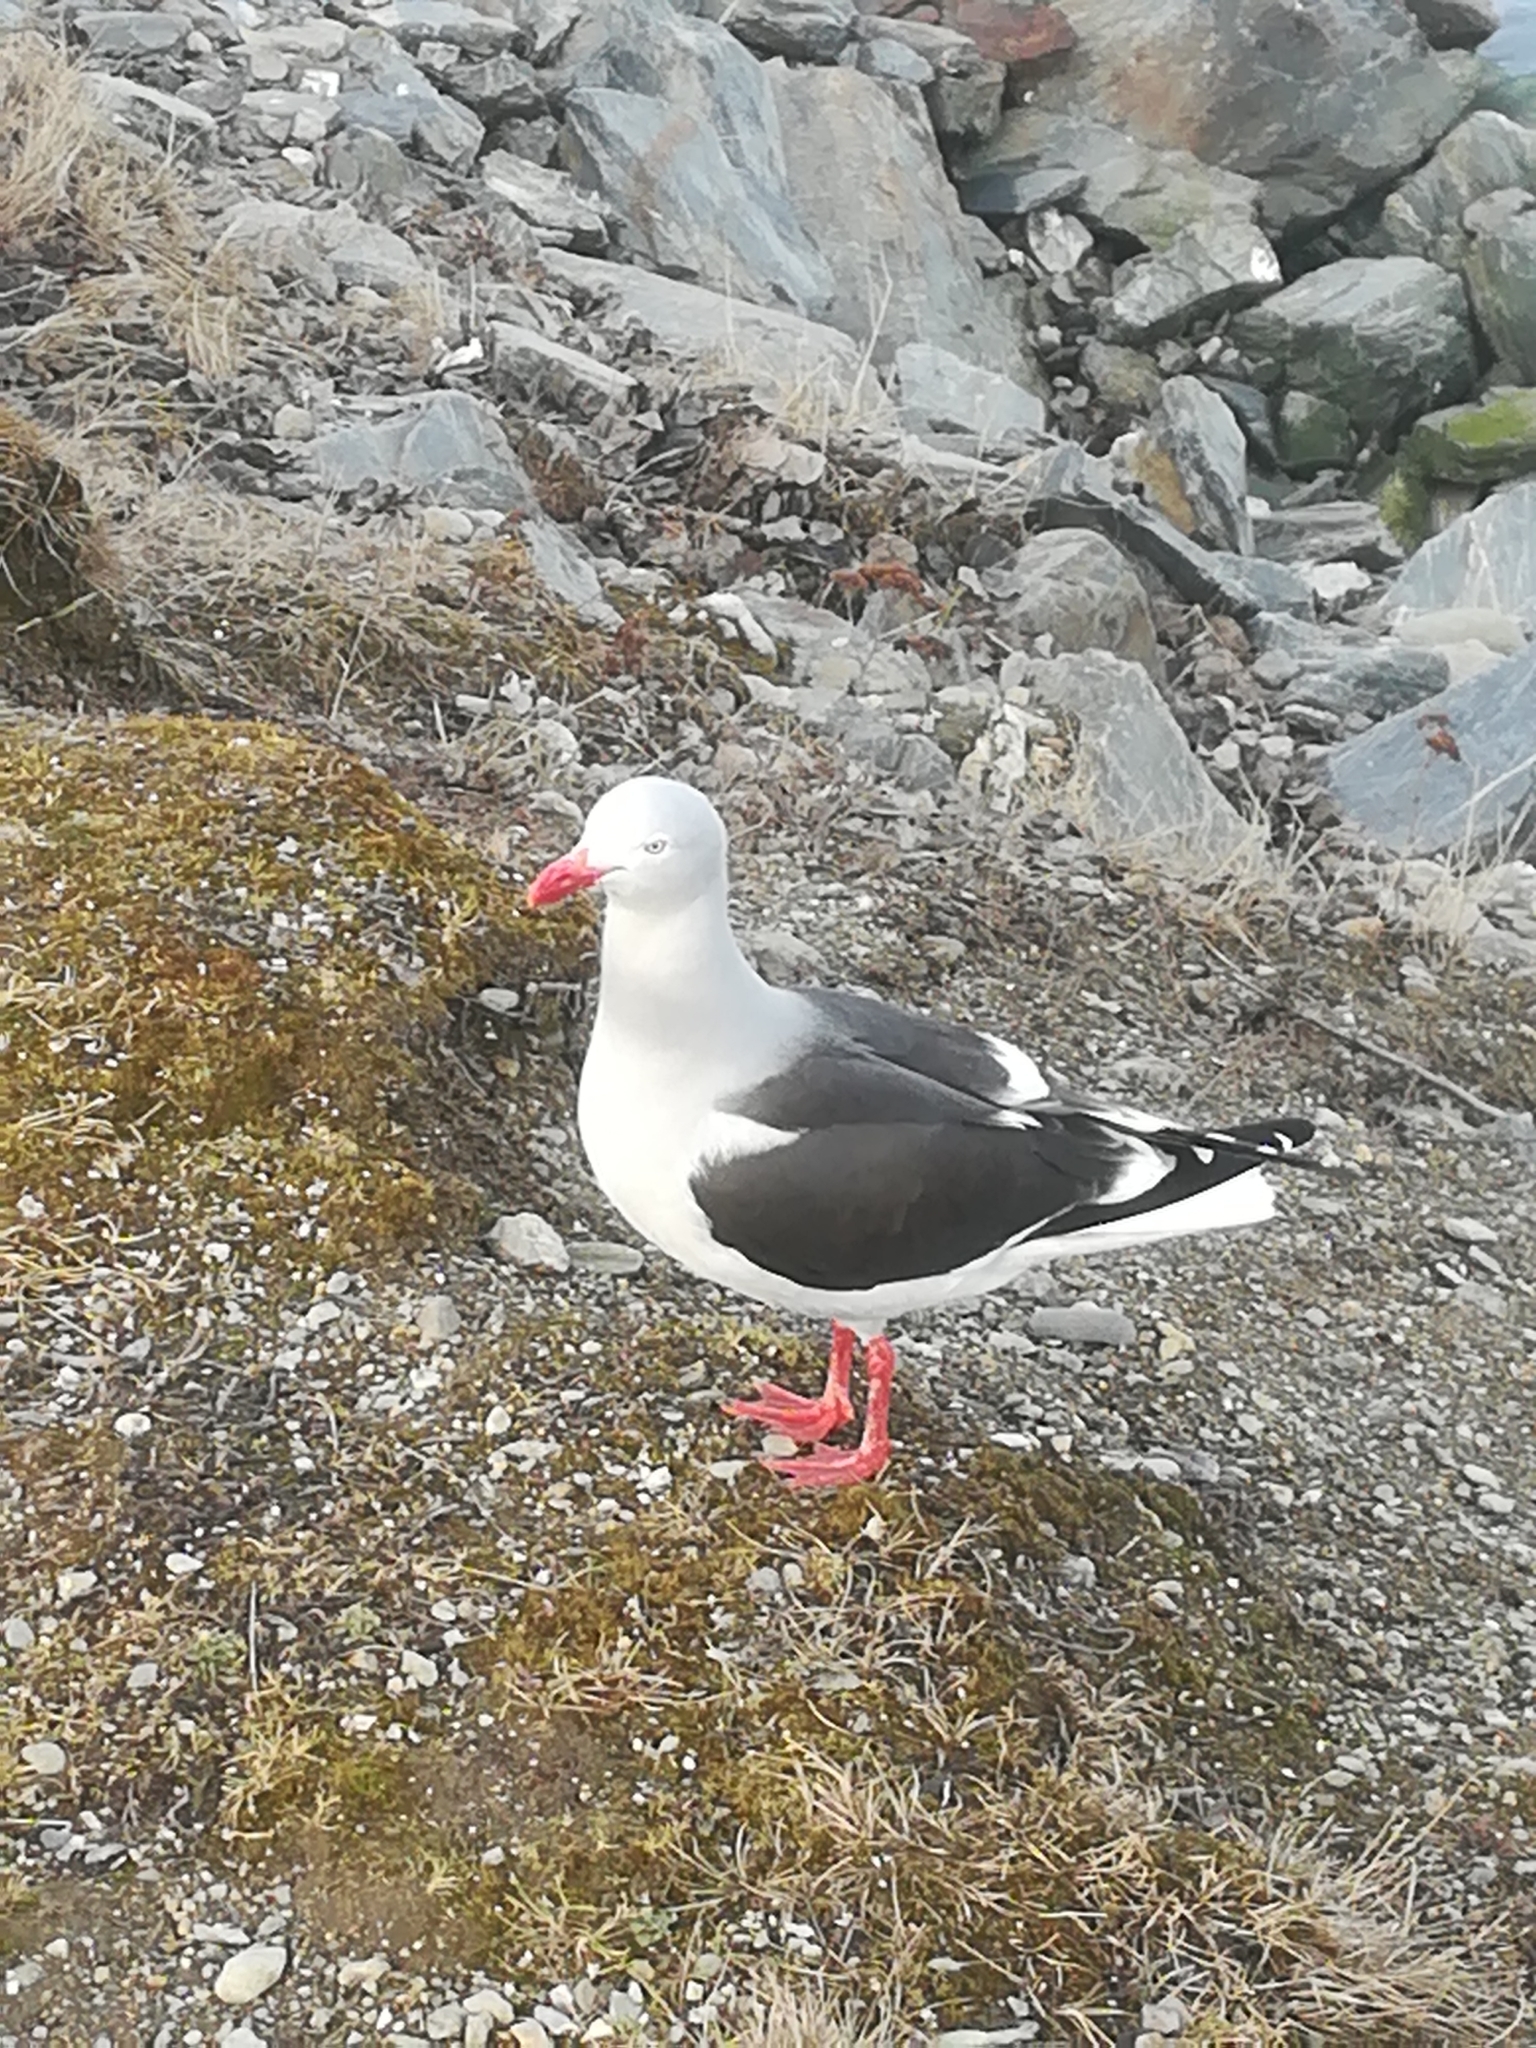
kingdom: Animalia
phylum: Chordata
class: Aves
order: Charadriiformes
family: Laridae
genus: Leucophaeus
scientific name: Leucophaeus scoresbii
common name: Dolphin gull
